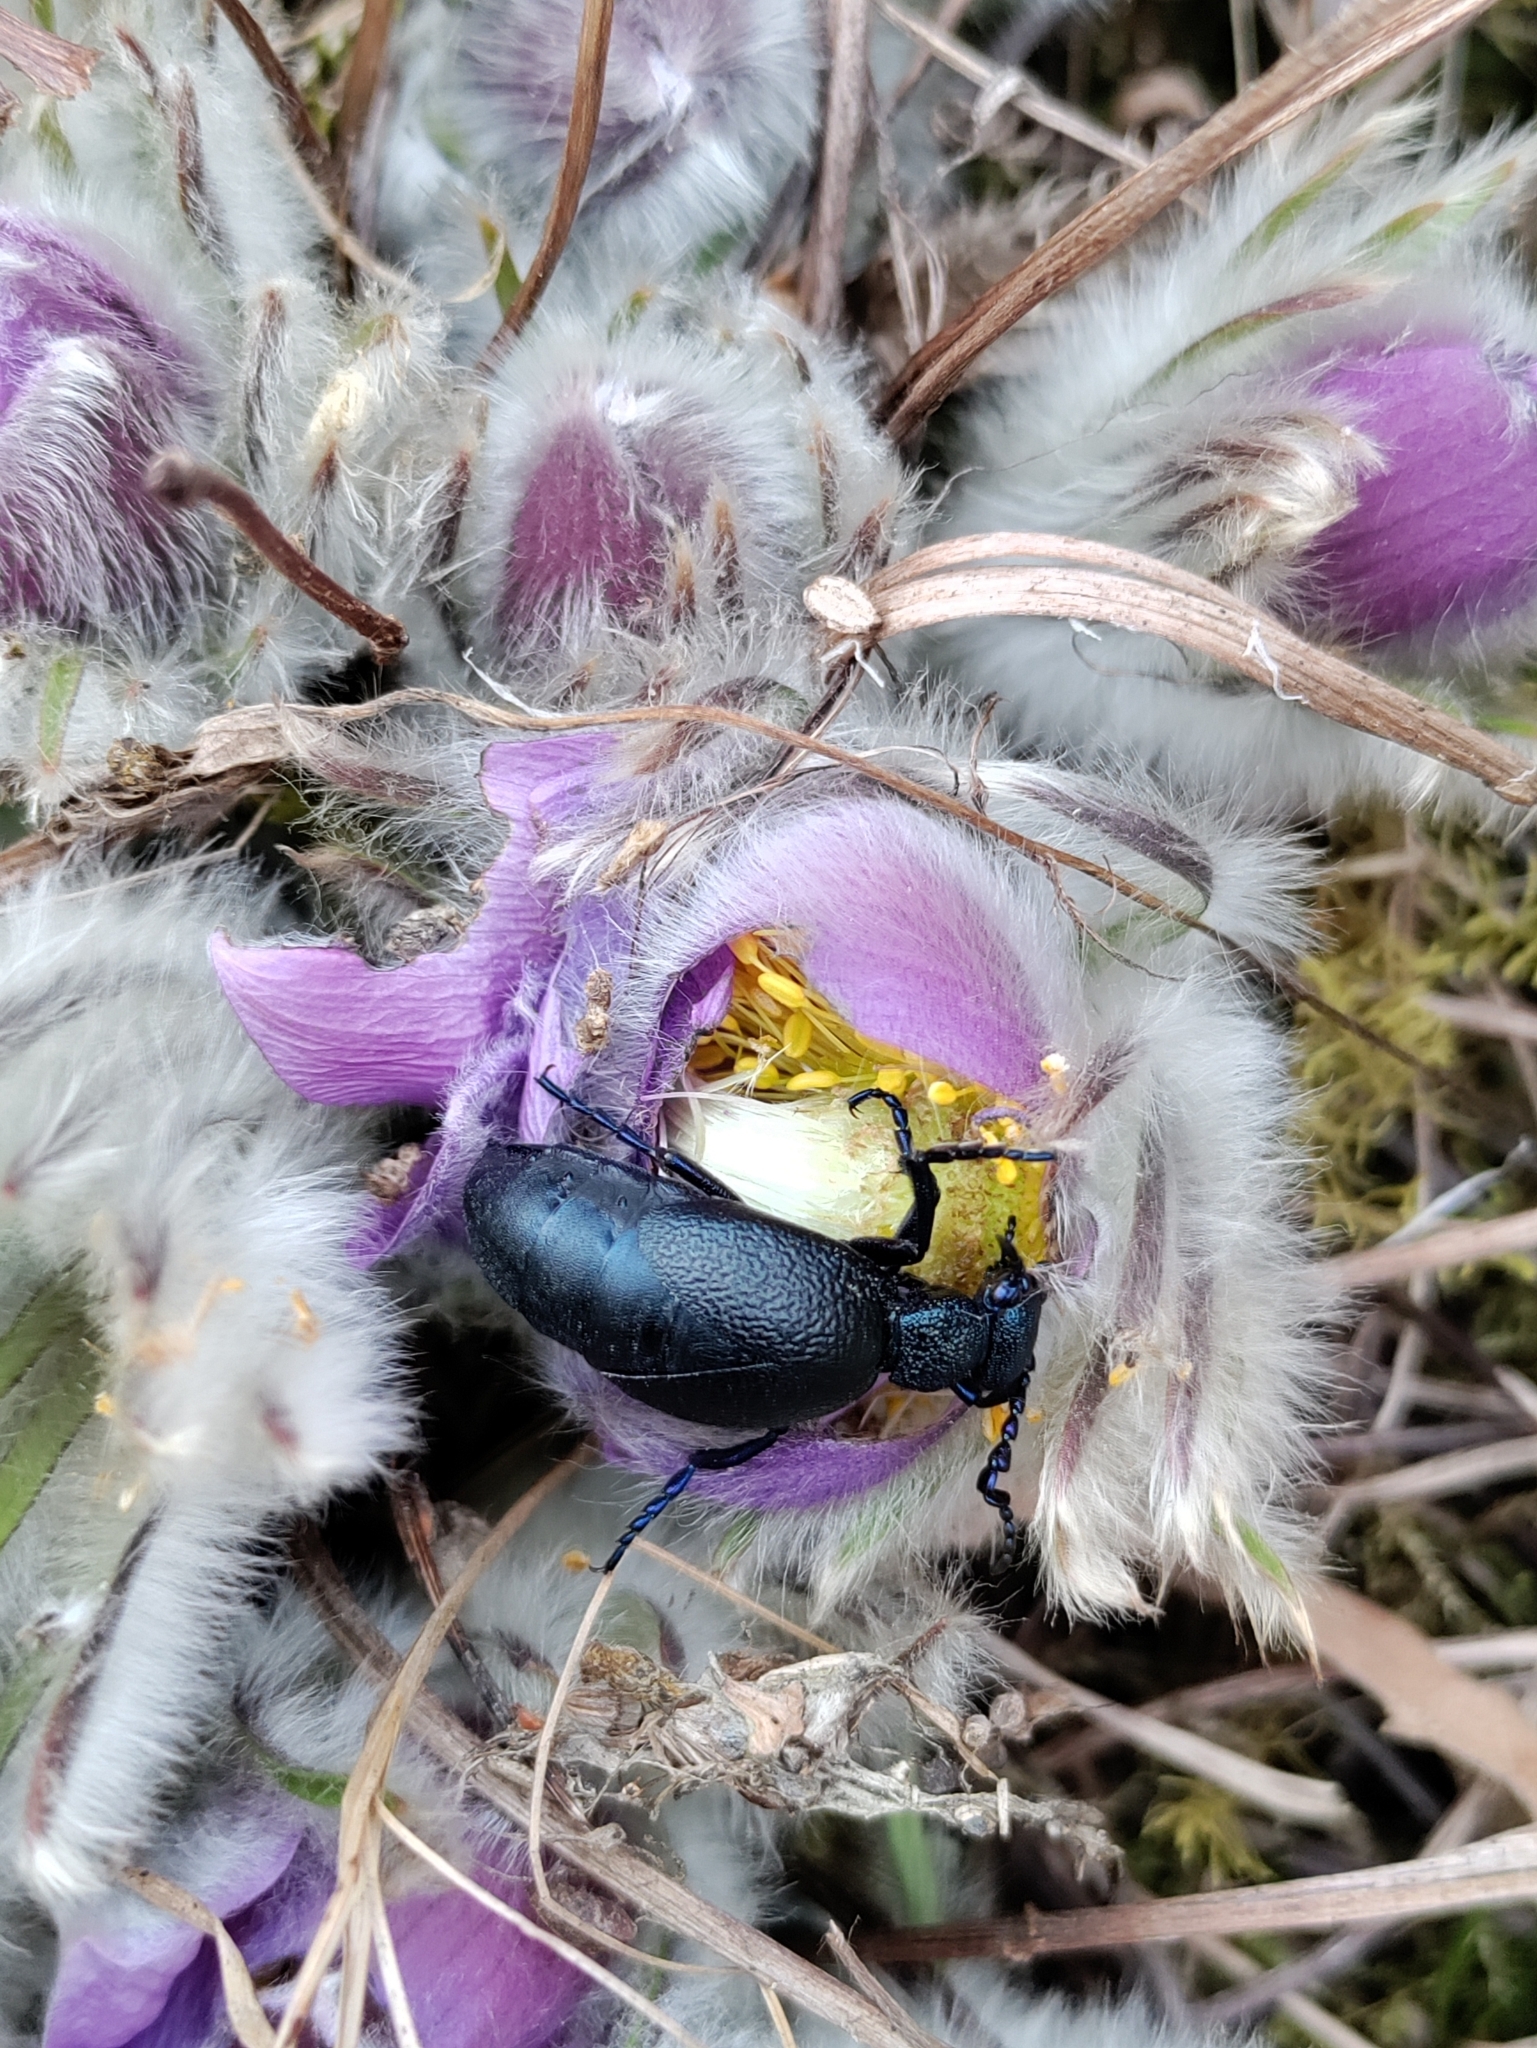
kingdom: Animalia
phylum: Arthropoda
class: Insecta
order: Coleoptera
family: Meloidae
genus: Meloe
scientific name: Meloe proscarabaeus
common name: Black oil-beetle
